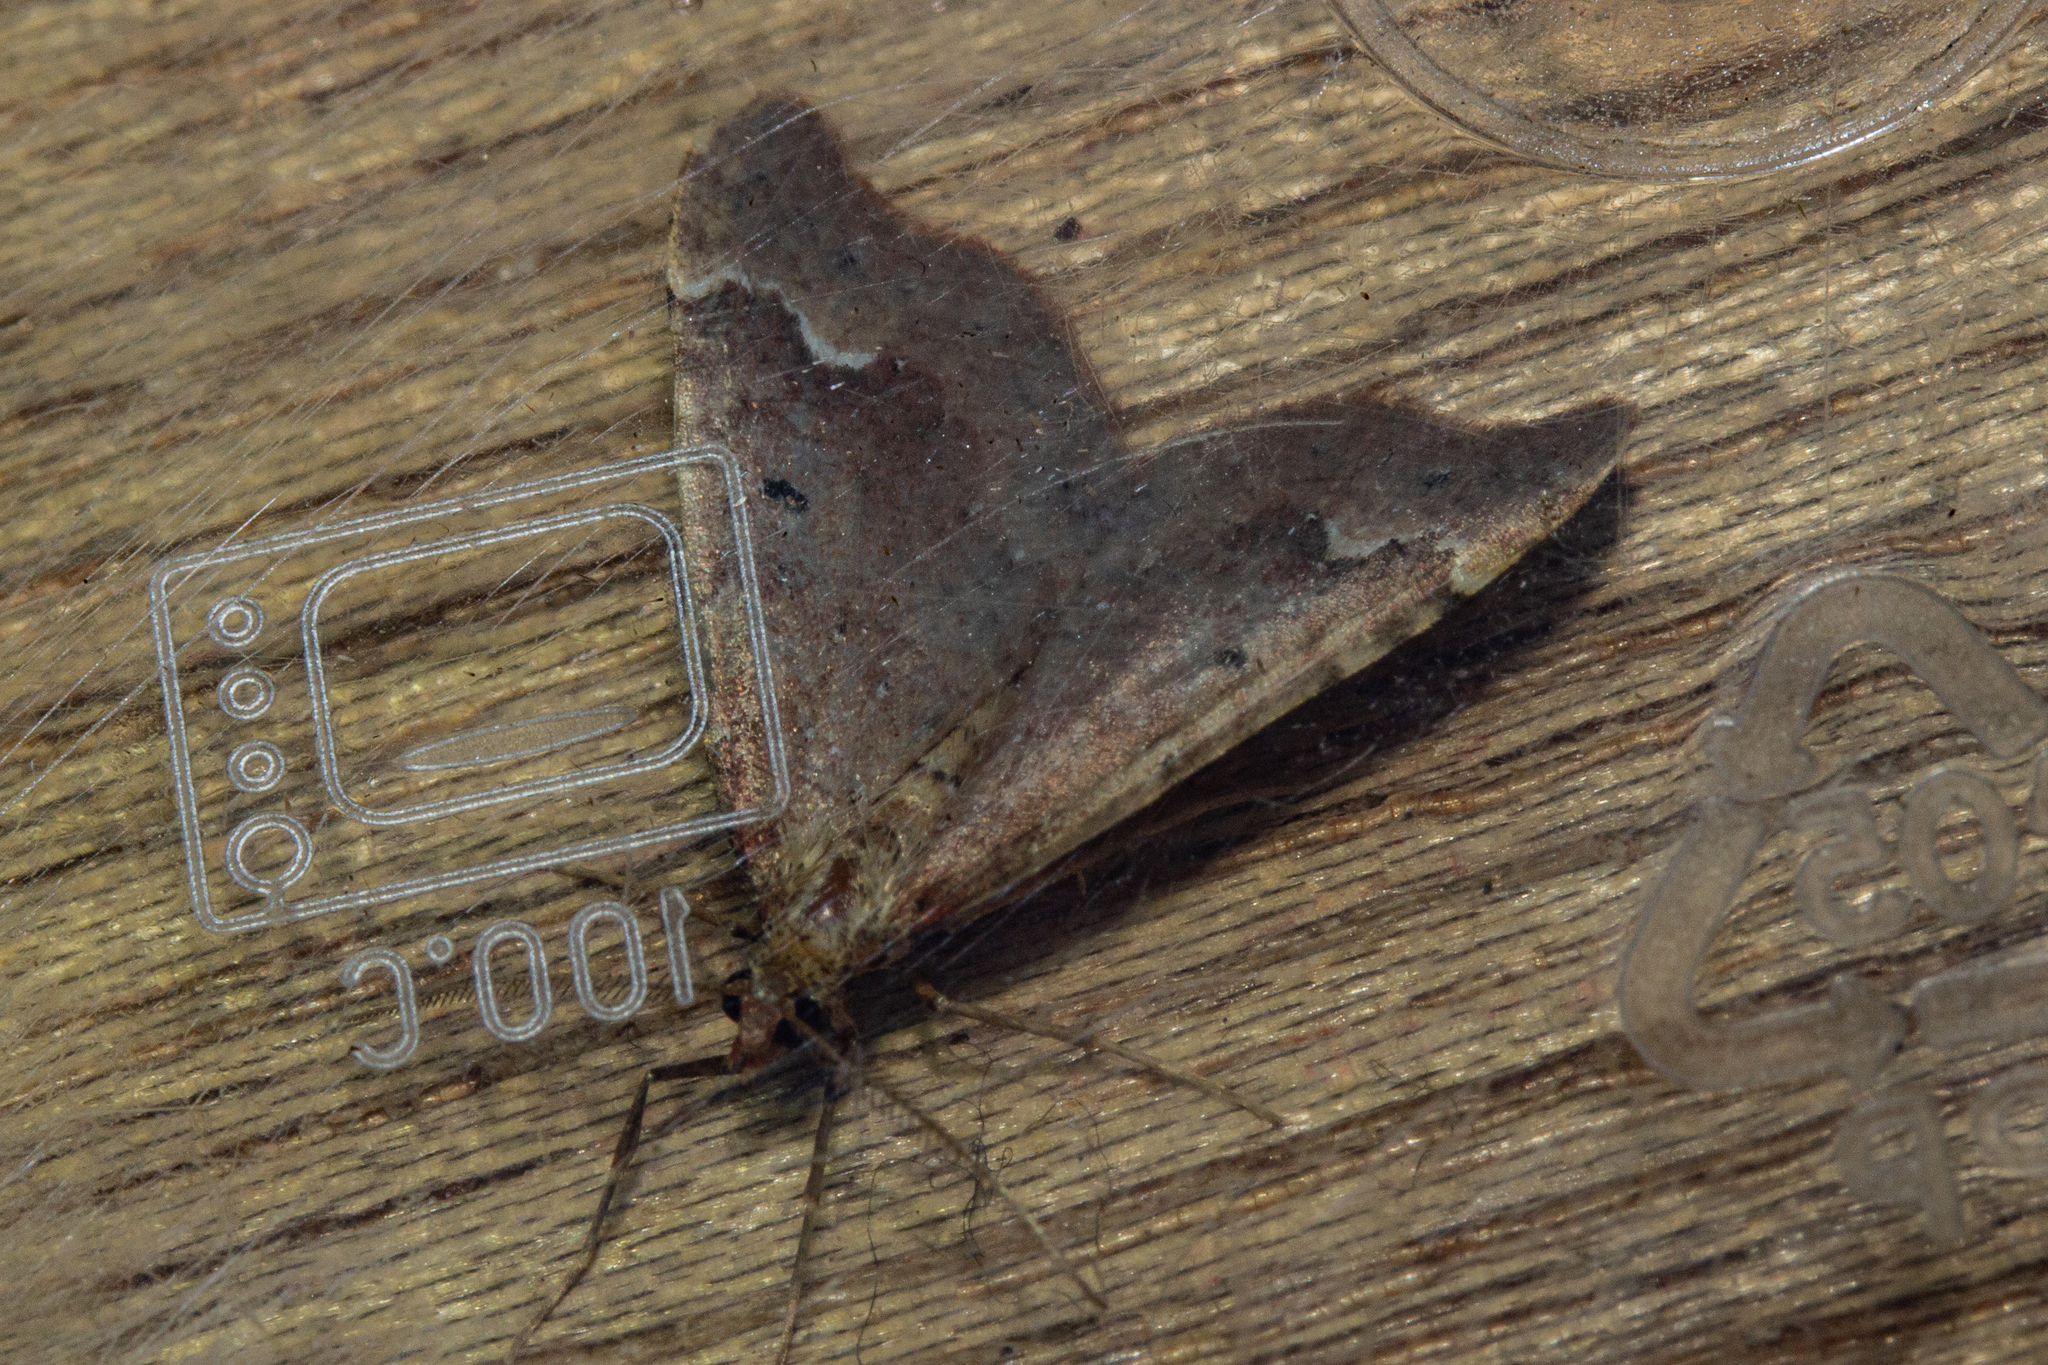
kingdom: Animalia
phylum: Arthropoda
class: Insecta
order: Lepidoptera
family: Geometridae
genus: Asaphodes
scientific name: Asaphodes camelias
